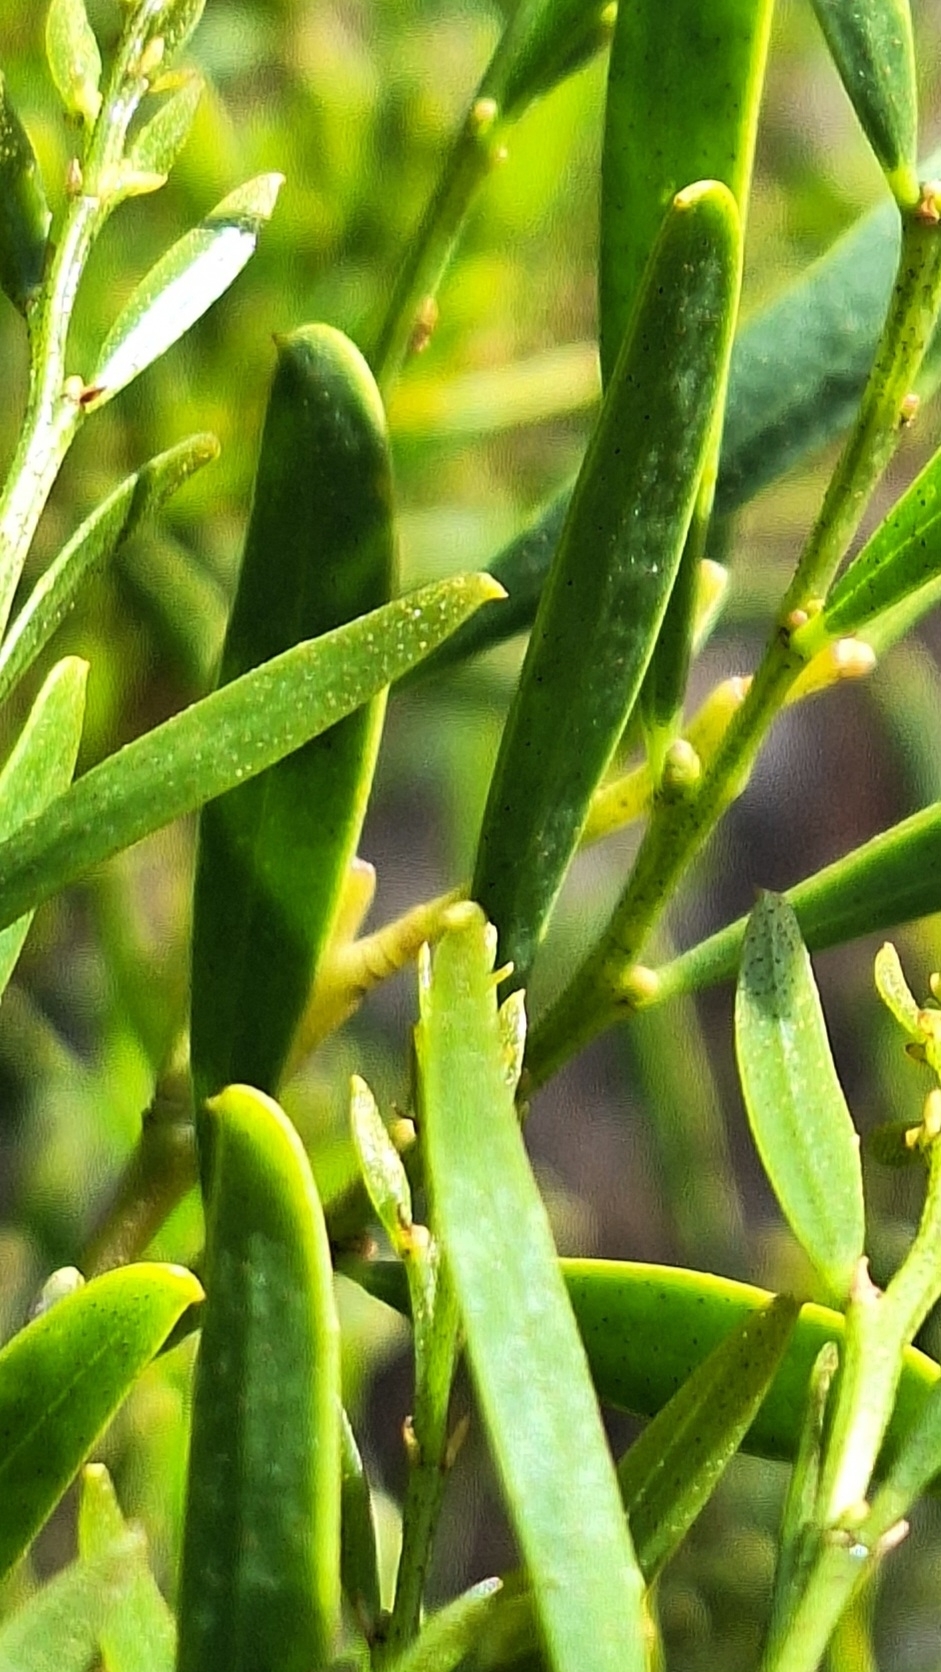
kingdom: Plantae
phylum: Tracheophyta
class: Magnoliopsida
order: Fabales
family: Fabaceae
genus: Acacia
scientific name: Acacia ligulata
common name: Dune wattle
